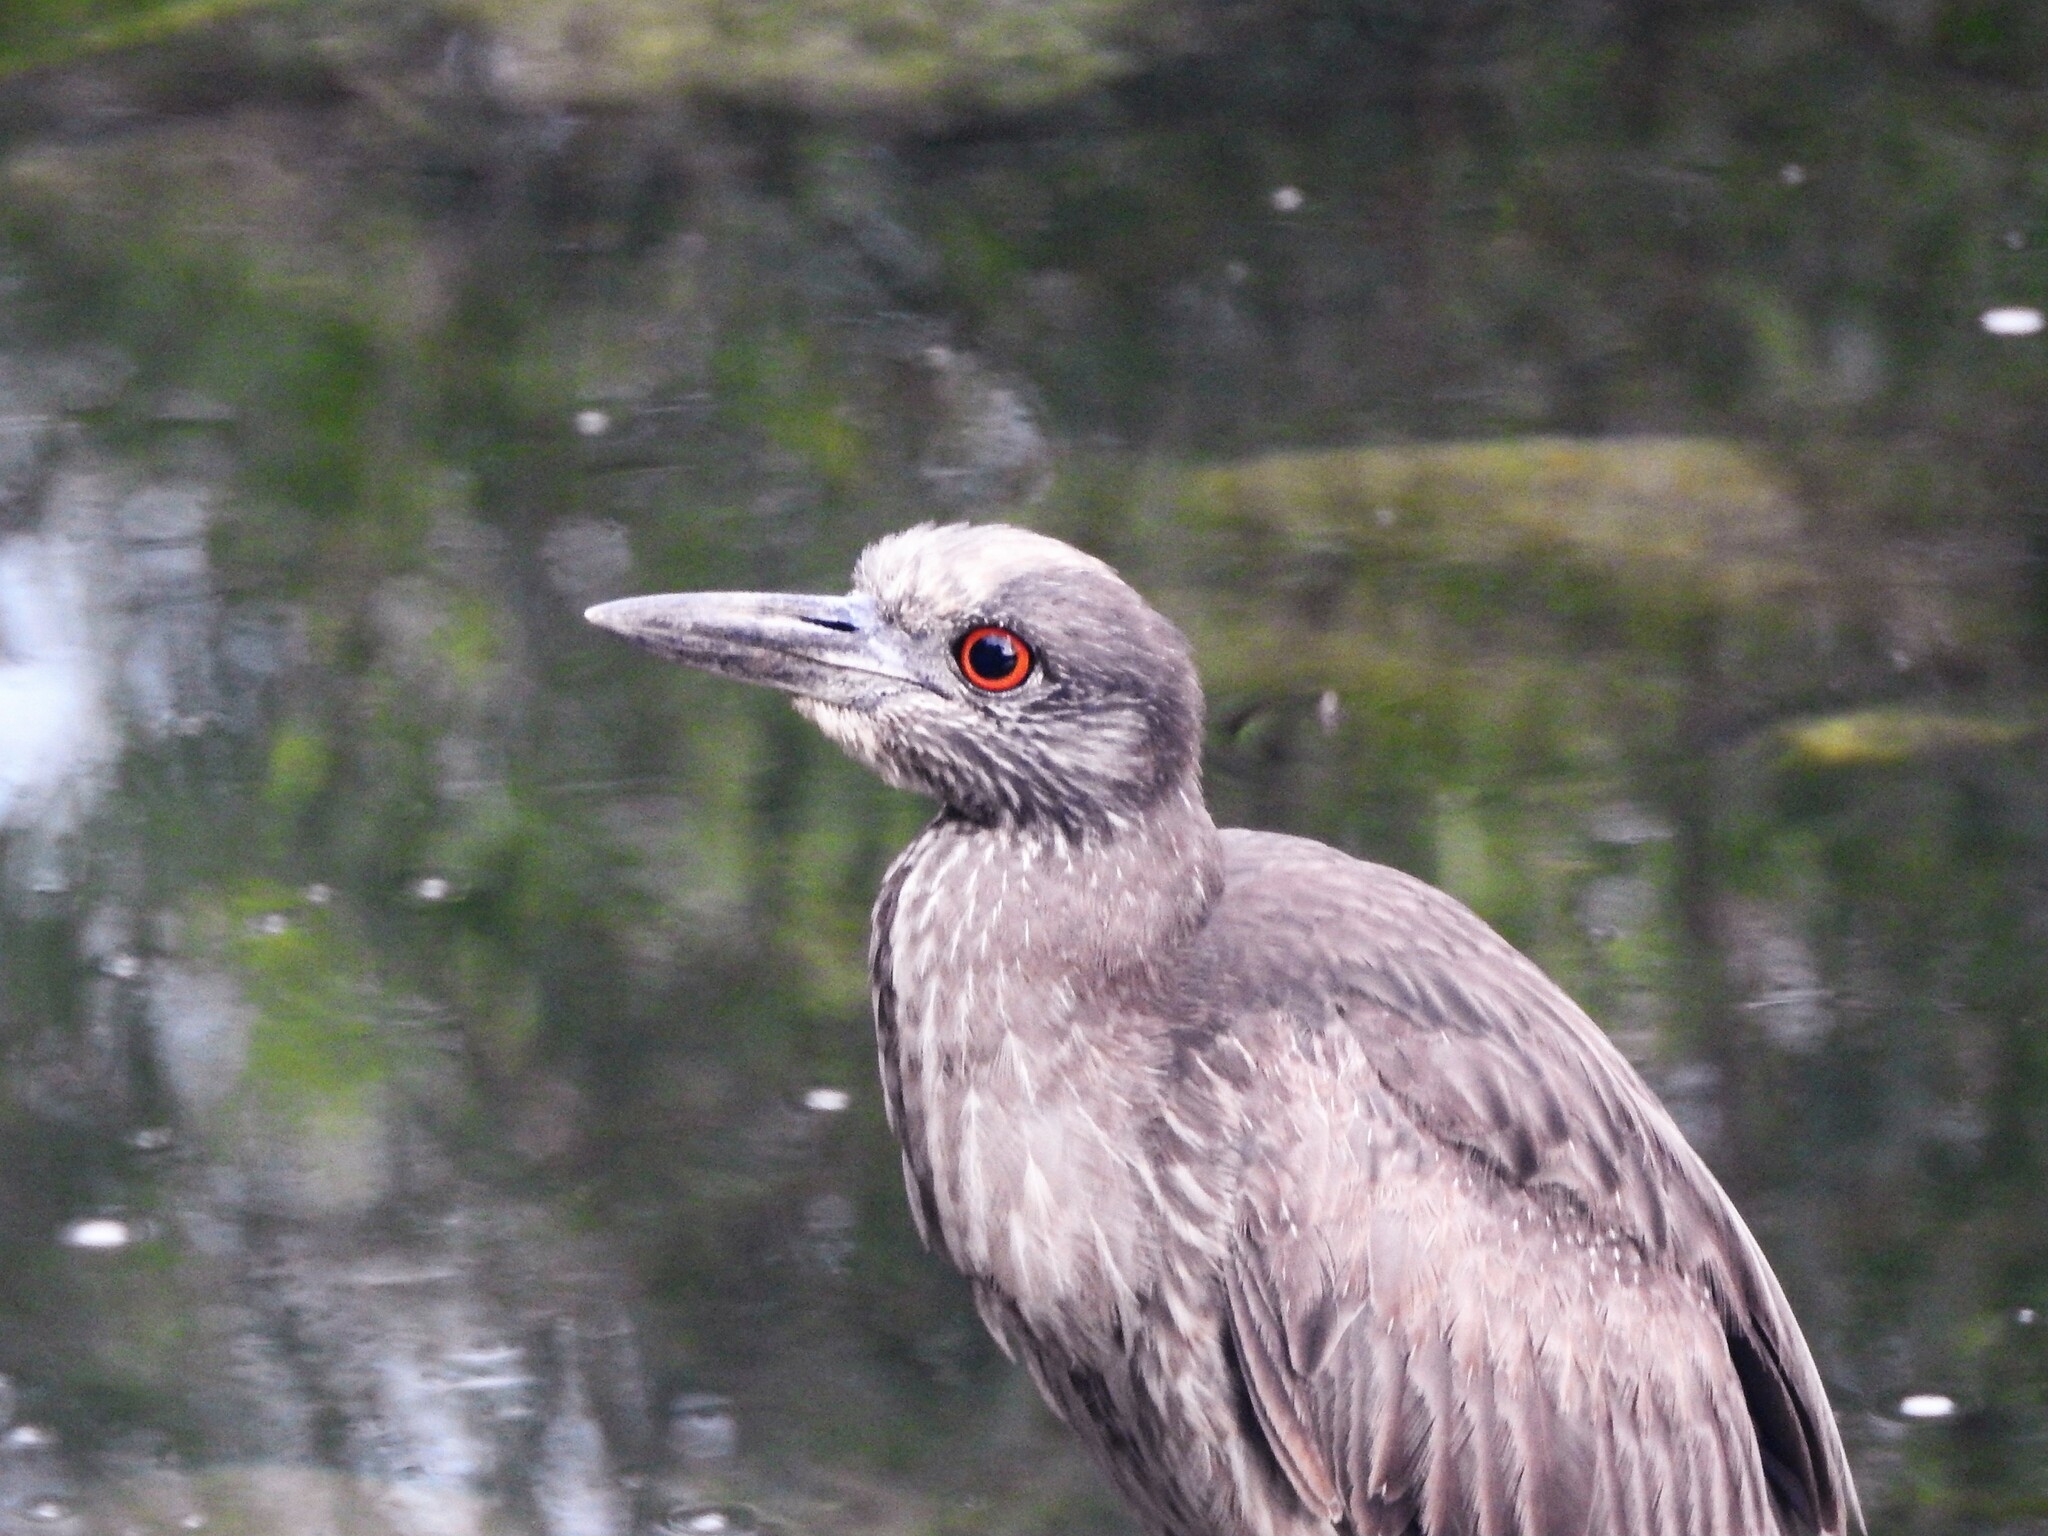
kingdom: Animalia
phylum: Chordata
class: Aves
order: Pelecaniformes
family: Ardeidae
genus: Nyctanassa
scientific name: Nyctanassa violacea
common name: Yellow-crowned night heron
